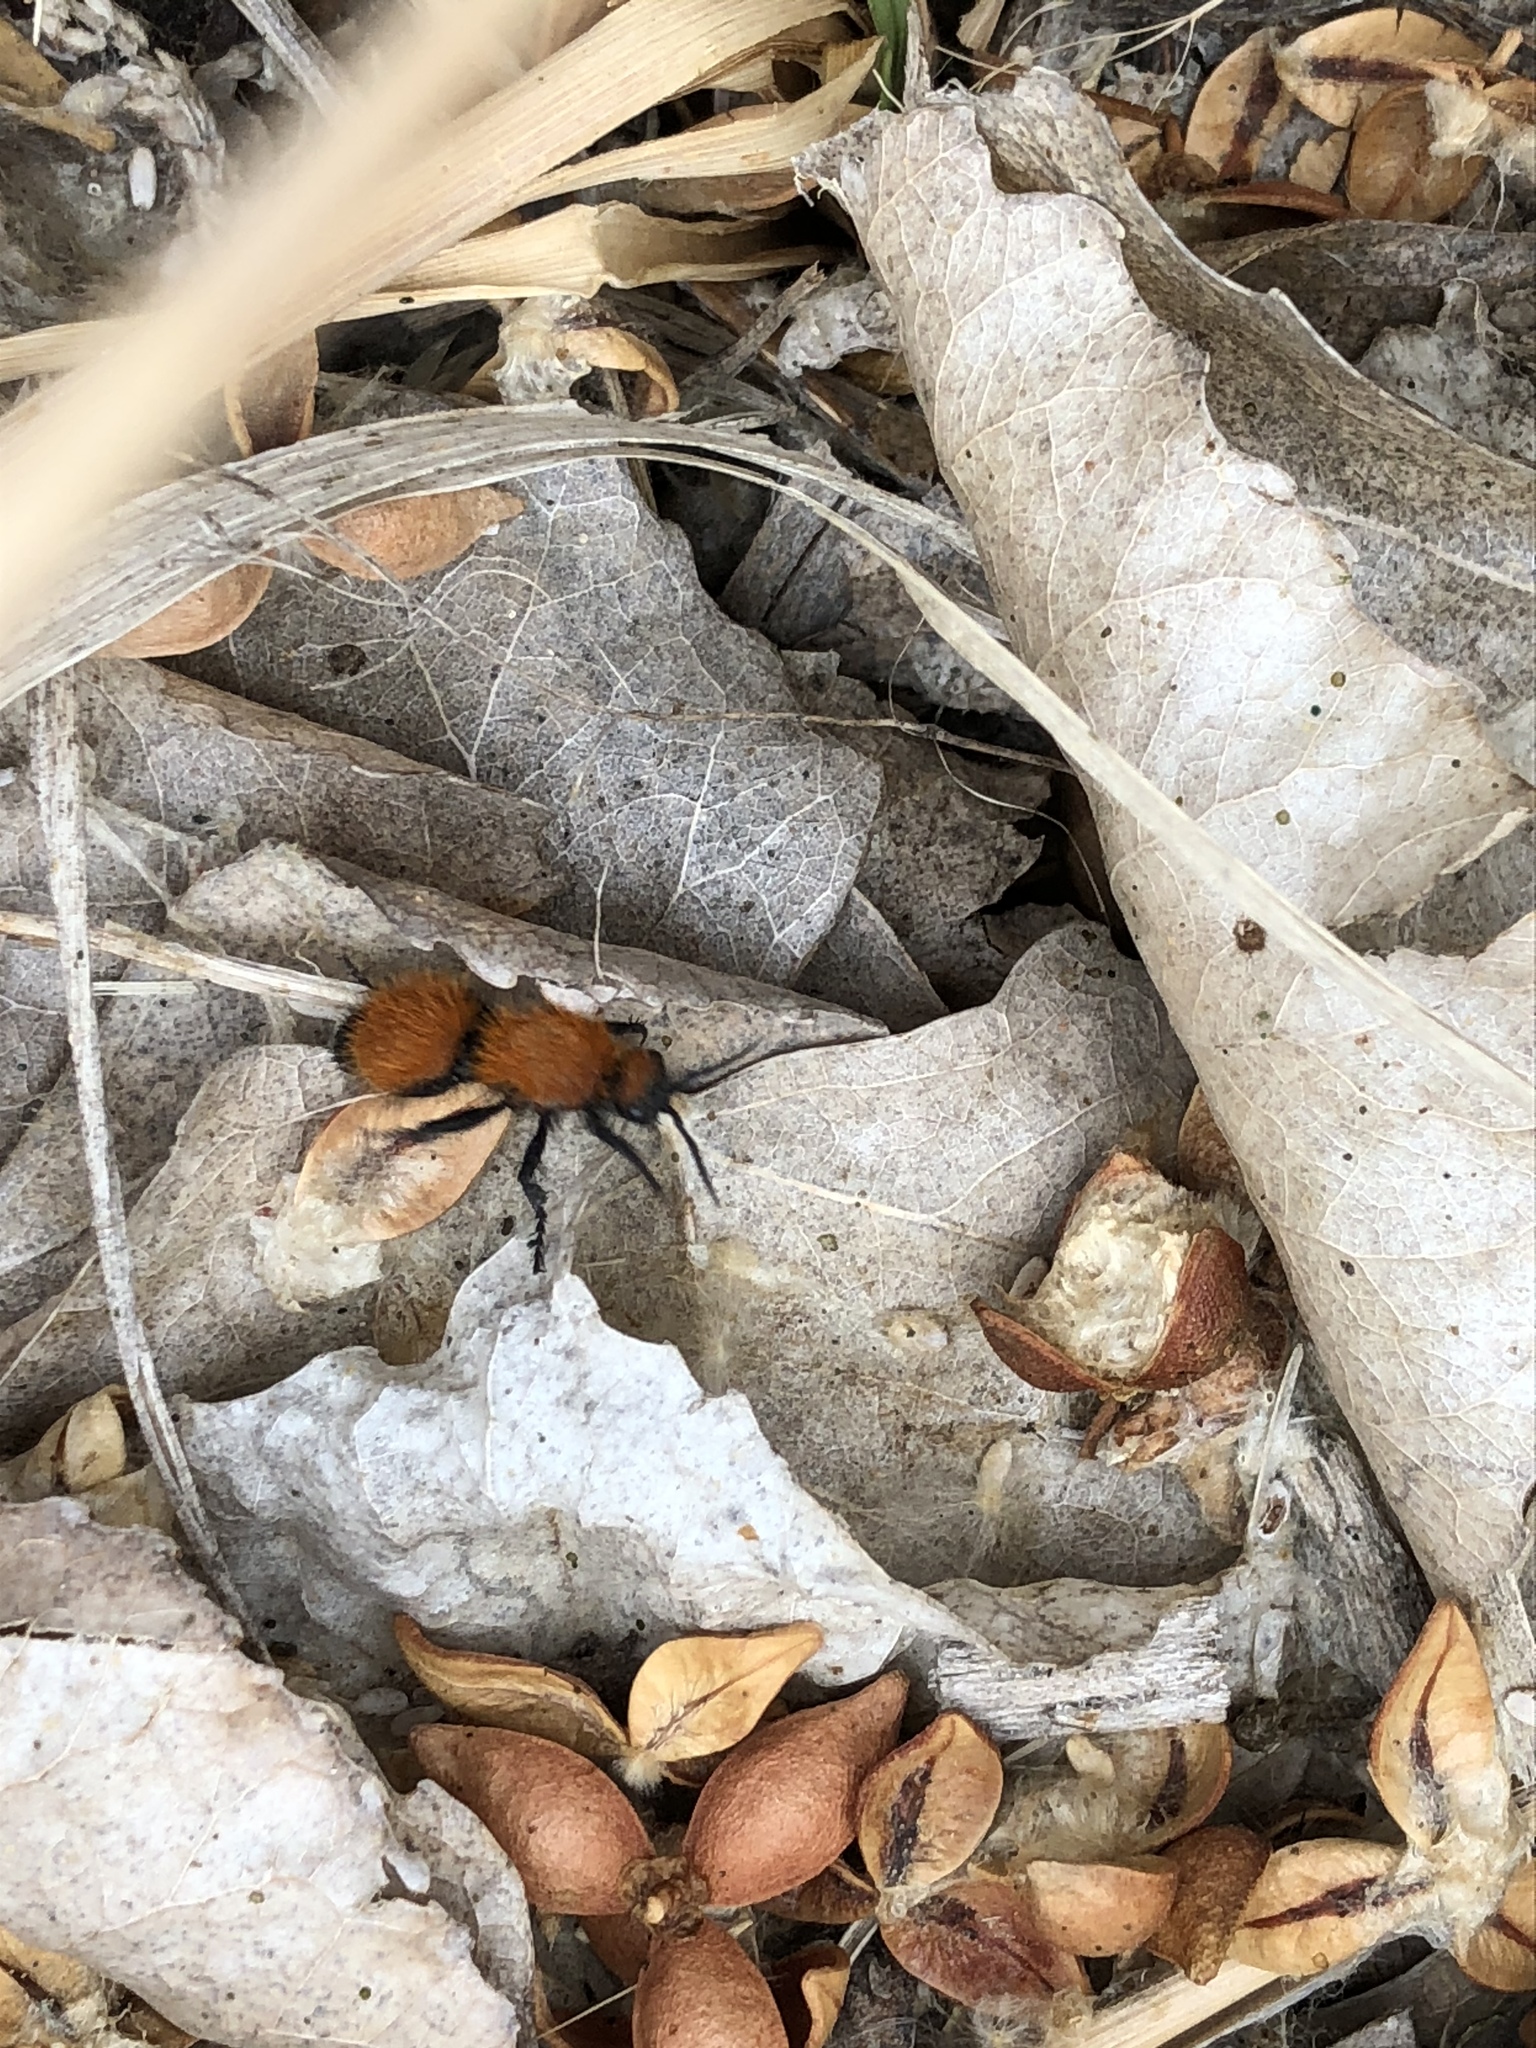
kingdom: Animalia
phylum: Arthropoda
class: Insecta
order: Hymenoptera
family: Mutillidae
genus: Dasymutilla
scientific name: Dasymutilla
